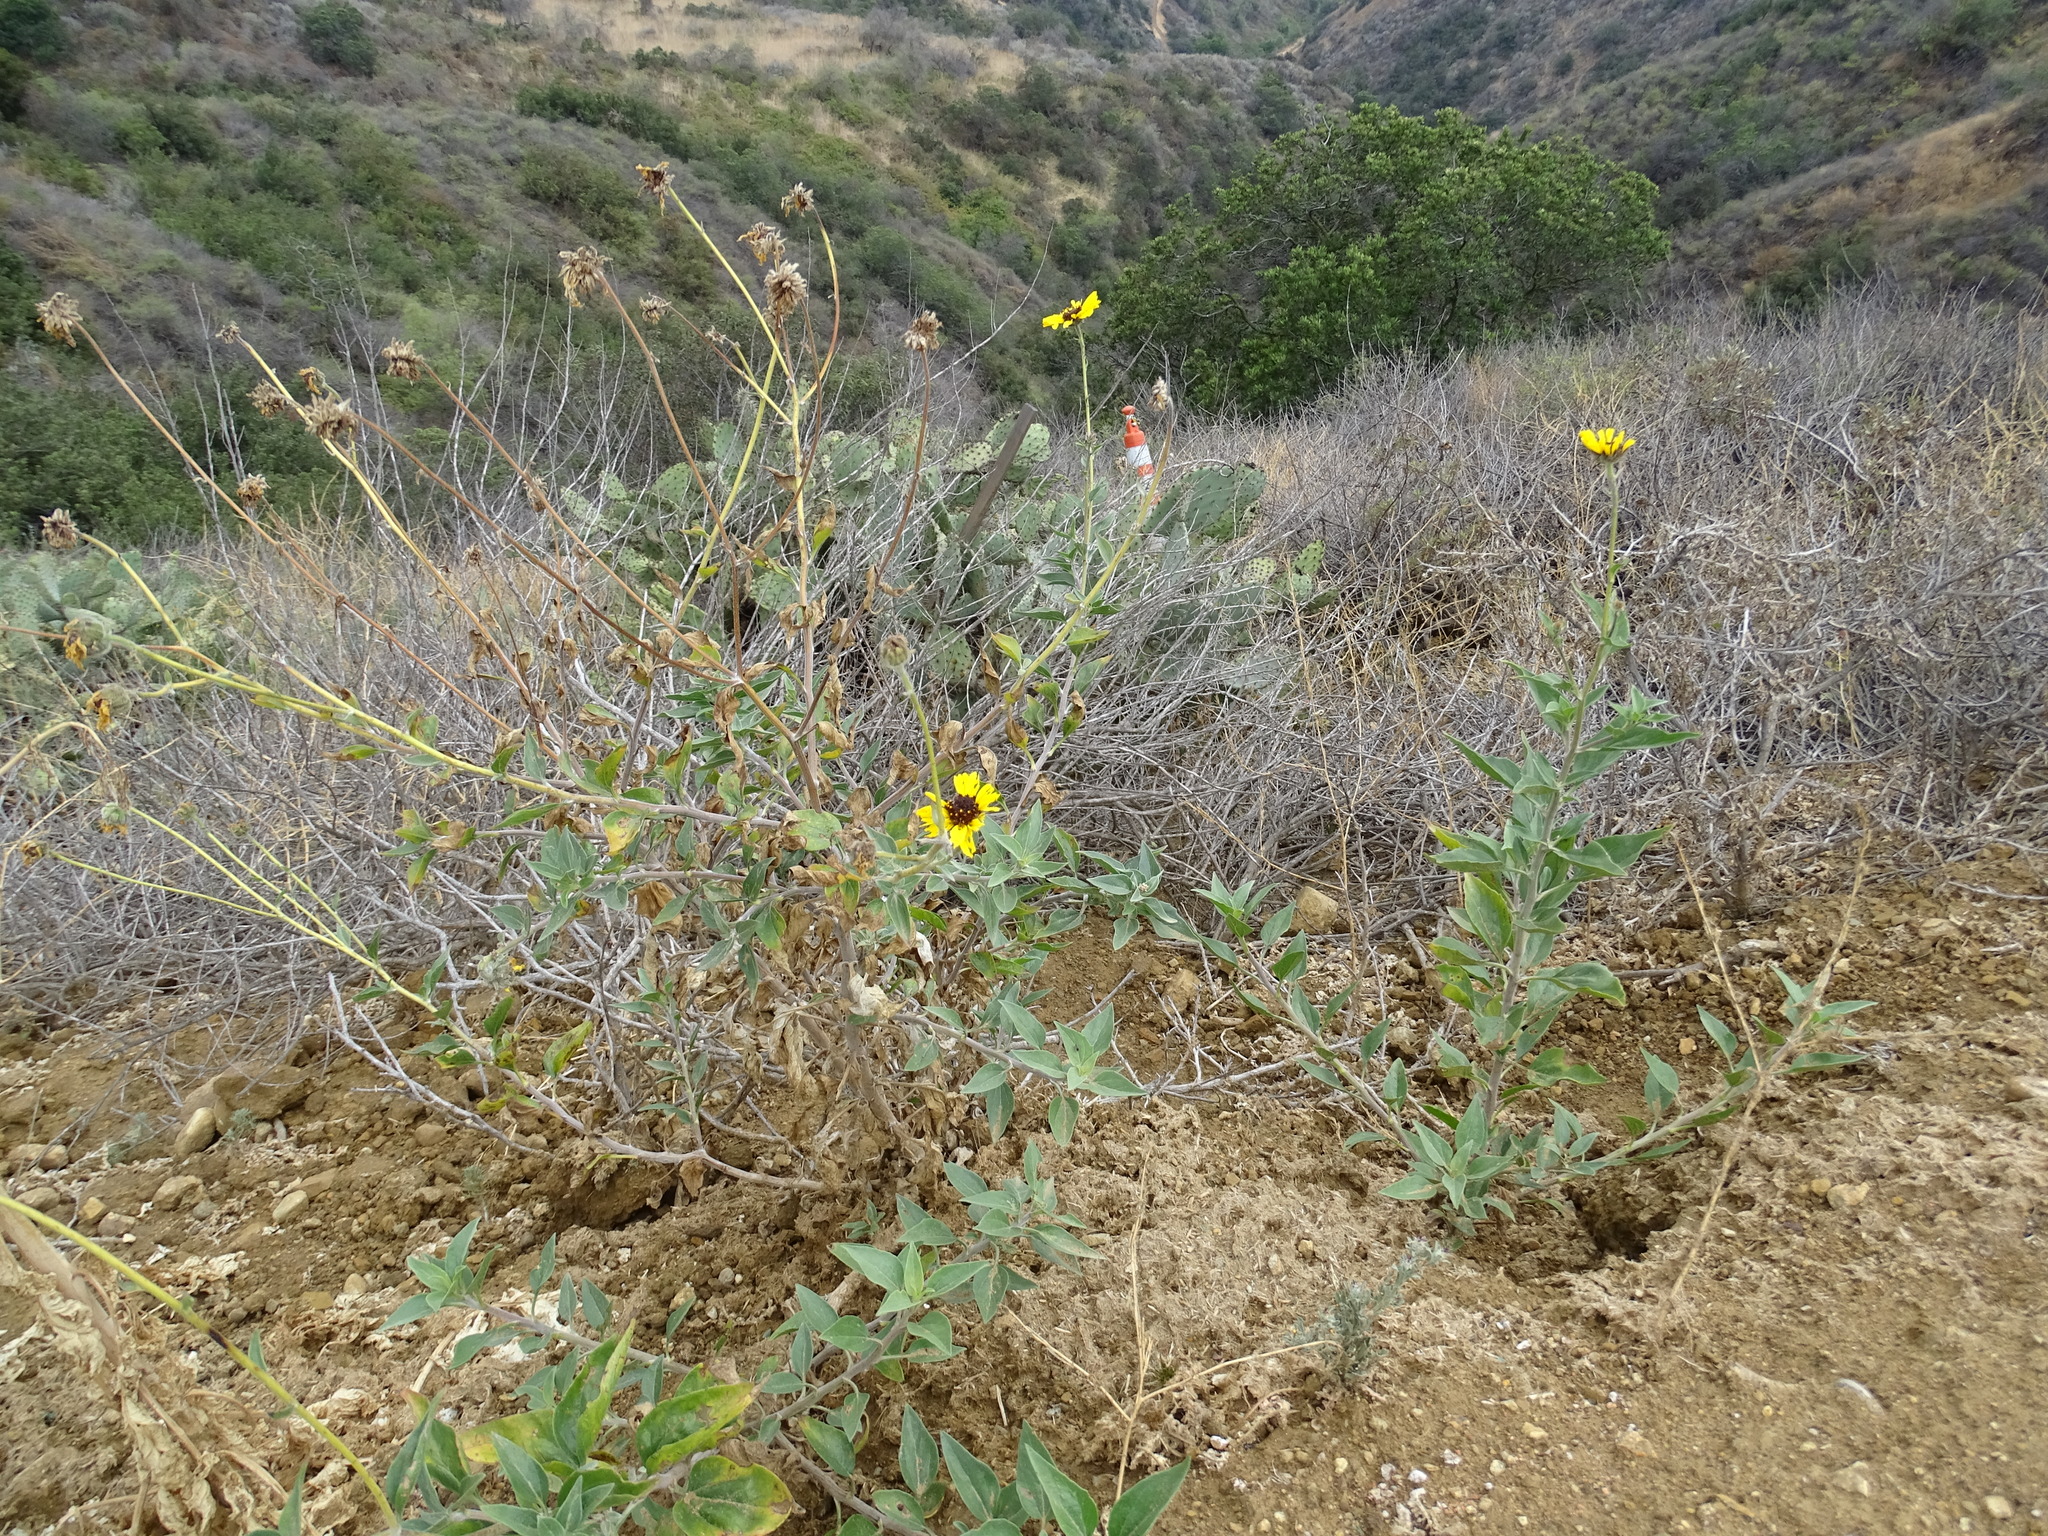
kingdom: Plantae
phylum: Tracheophyta
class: Magnoliopsida
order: Asterales
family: Asteraceae
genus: Encelia
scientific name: Encelia californica
